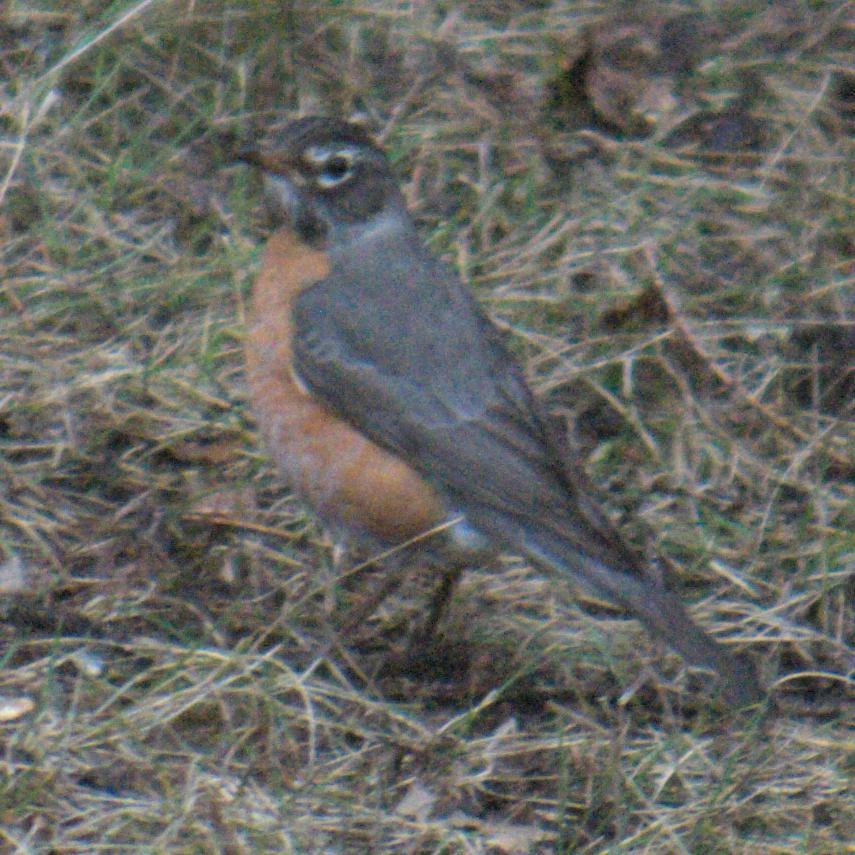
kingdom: Animalia
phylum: Chordata
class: Aves
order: Passeriformes
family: Turdidae
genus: Turdus
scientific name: Turdus migratorius
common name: American robin
